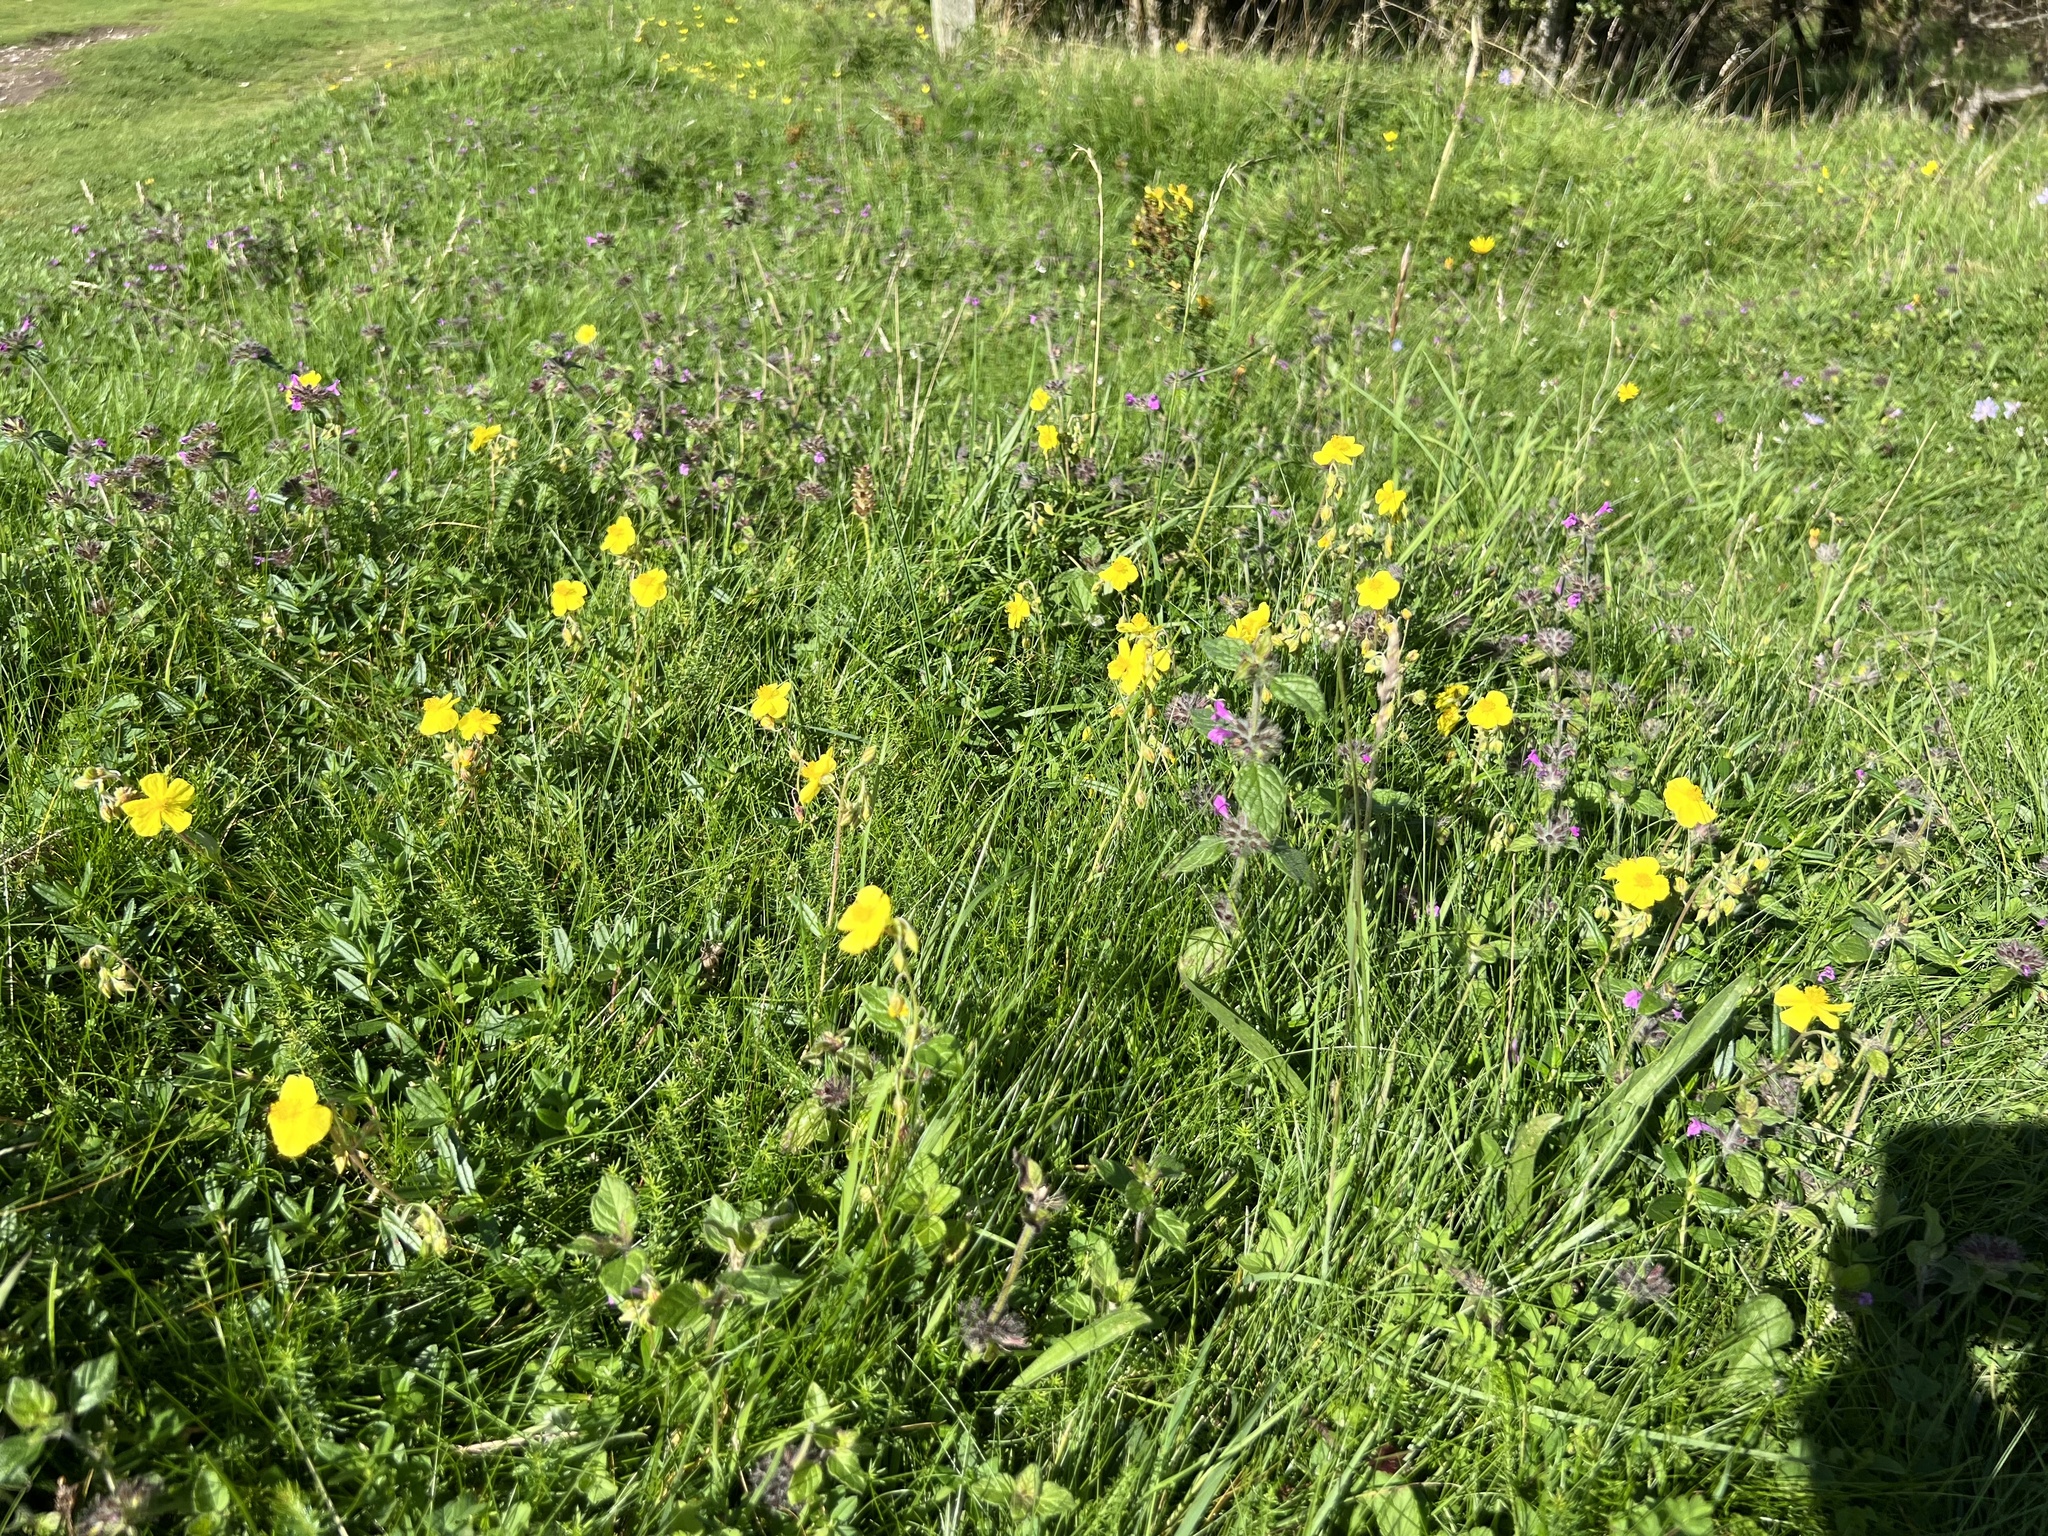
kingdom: Plantae
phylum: Tracheophyta
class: Magnoliopsida
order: Malvales
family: Cistaceae
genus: Helianthemum
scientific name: Helianthemum nummularium
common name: Common rock-rose
